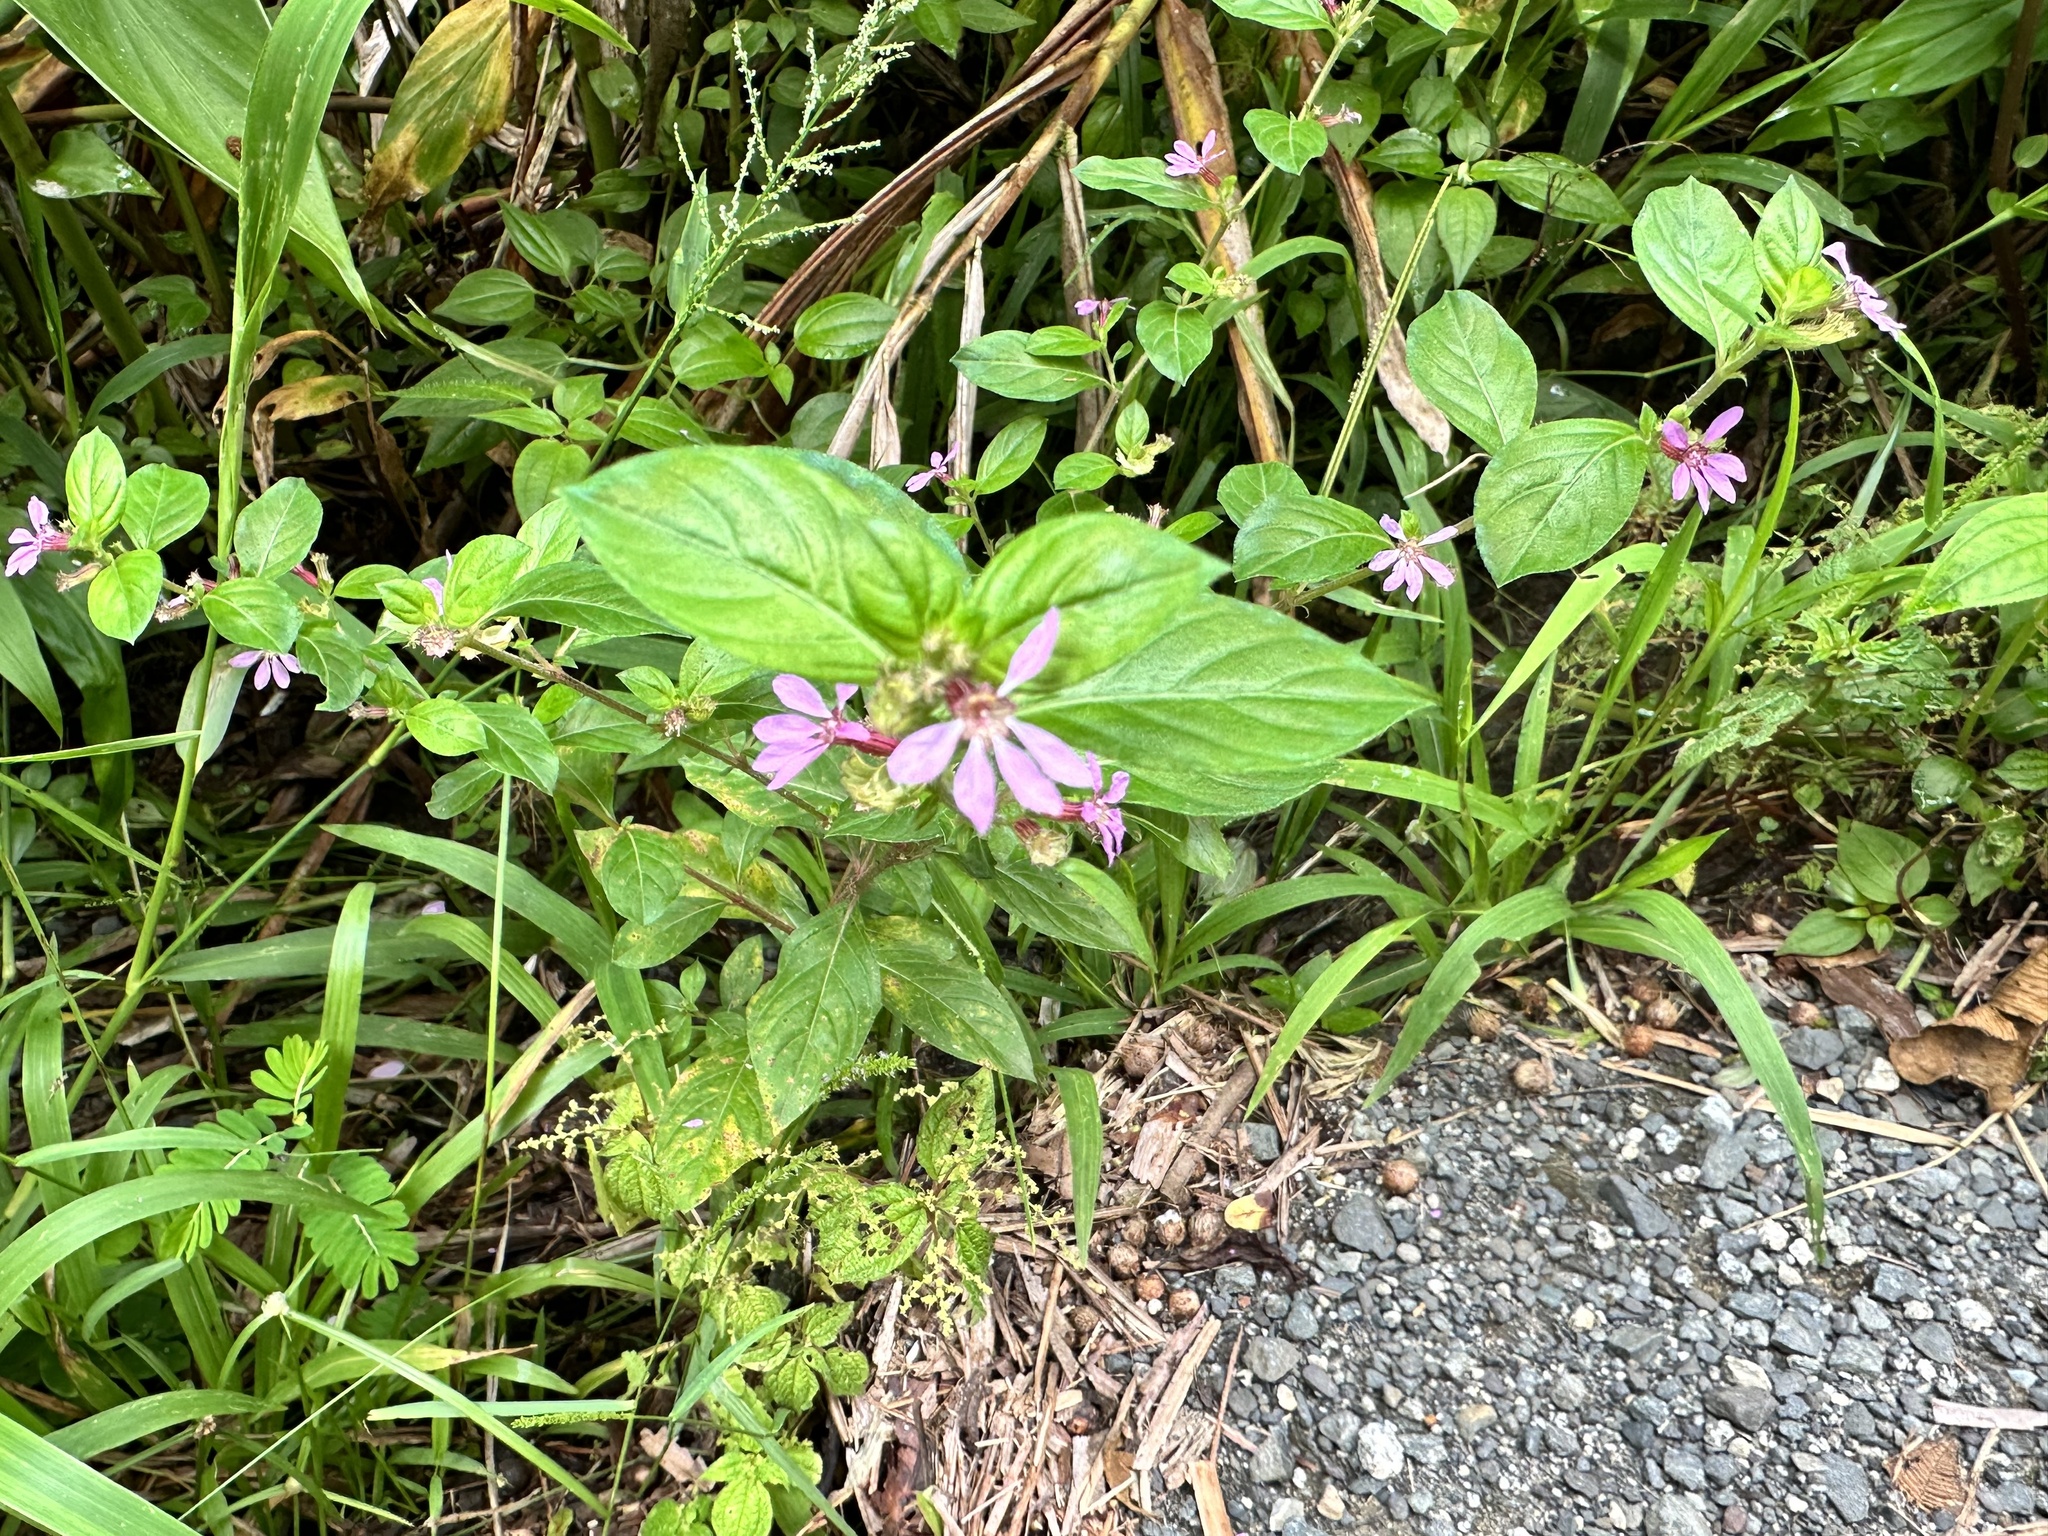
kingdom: Plantae
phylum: Tracheophyta
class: Magnoliopsida
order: Myrtales
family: Lythraceae
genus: Cuphea
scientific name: Cuphea strigulosa
